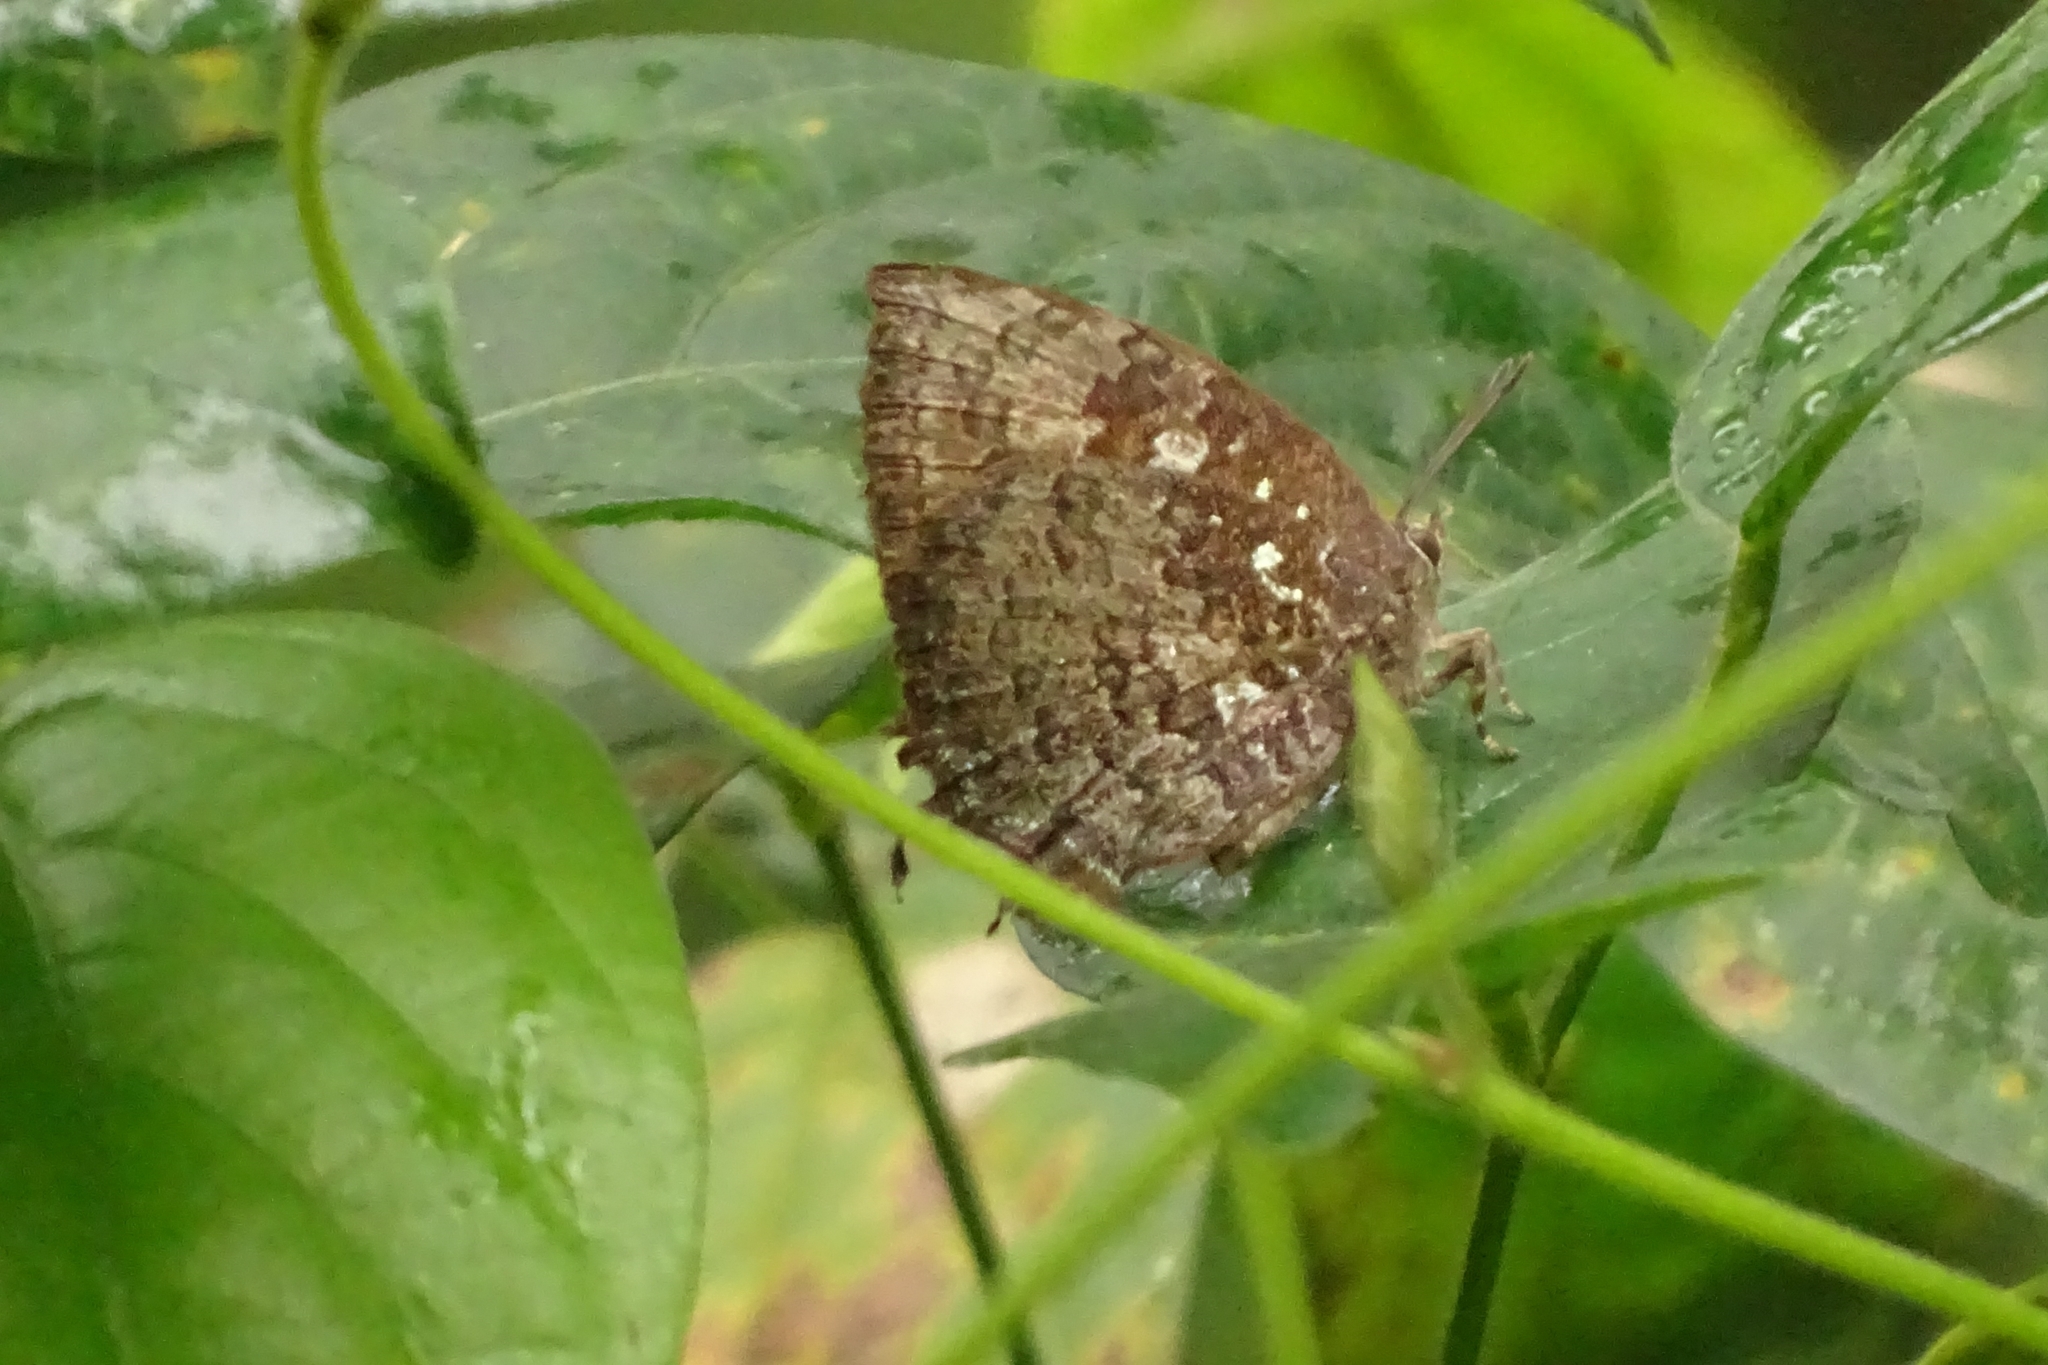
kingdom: Animalia
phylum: Arthropoda
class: Insecta
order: Lepidoptera
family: Lycaenidae
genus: Thaduka
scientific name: Thaduka multicaudata
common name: Many-tailed oakblue
